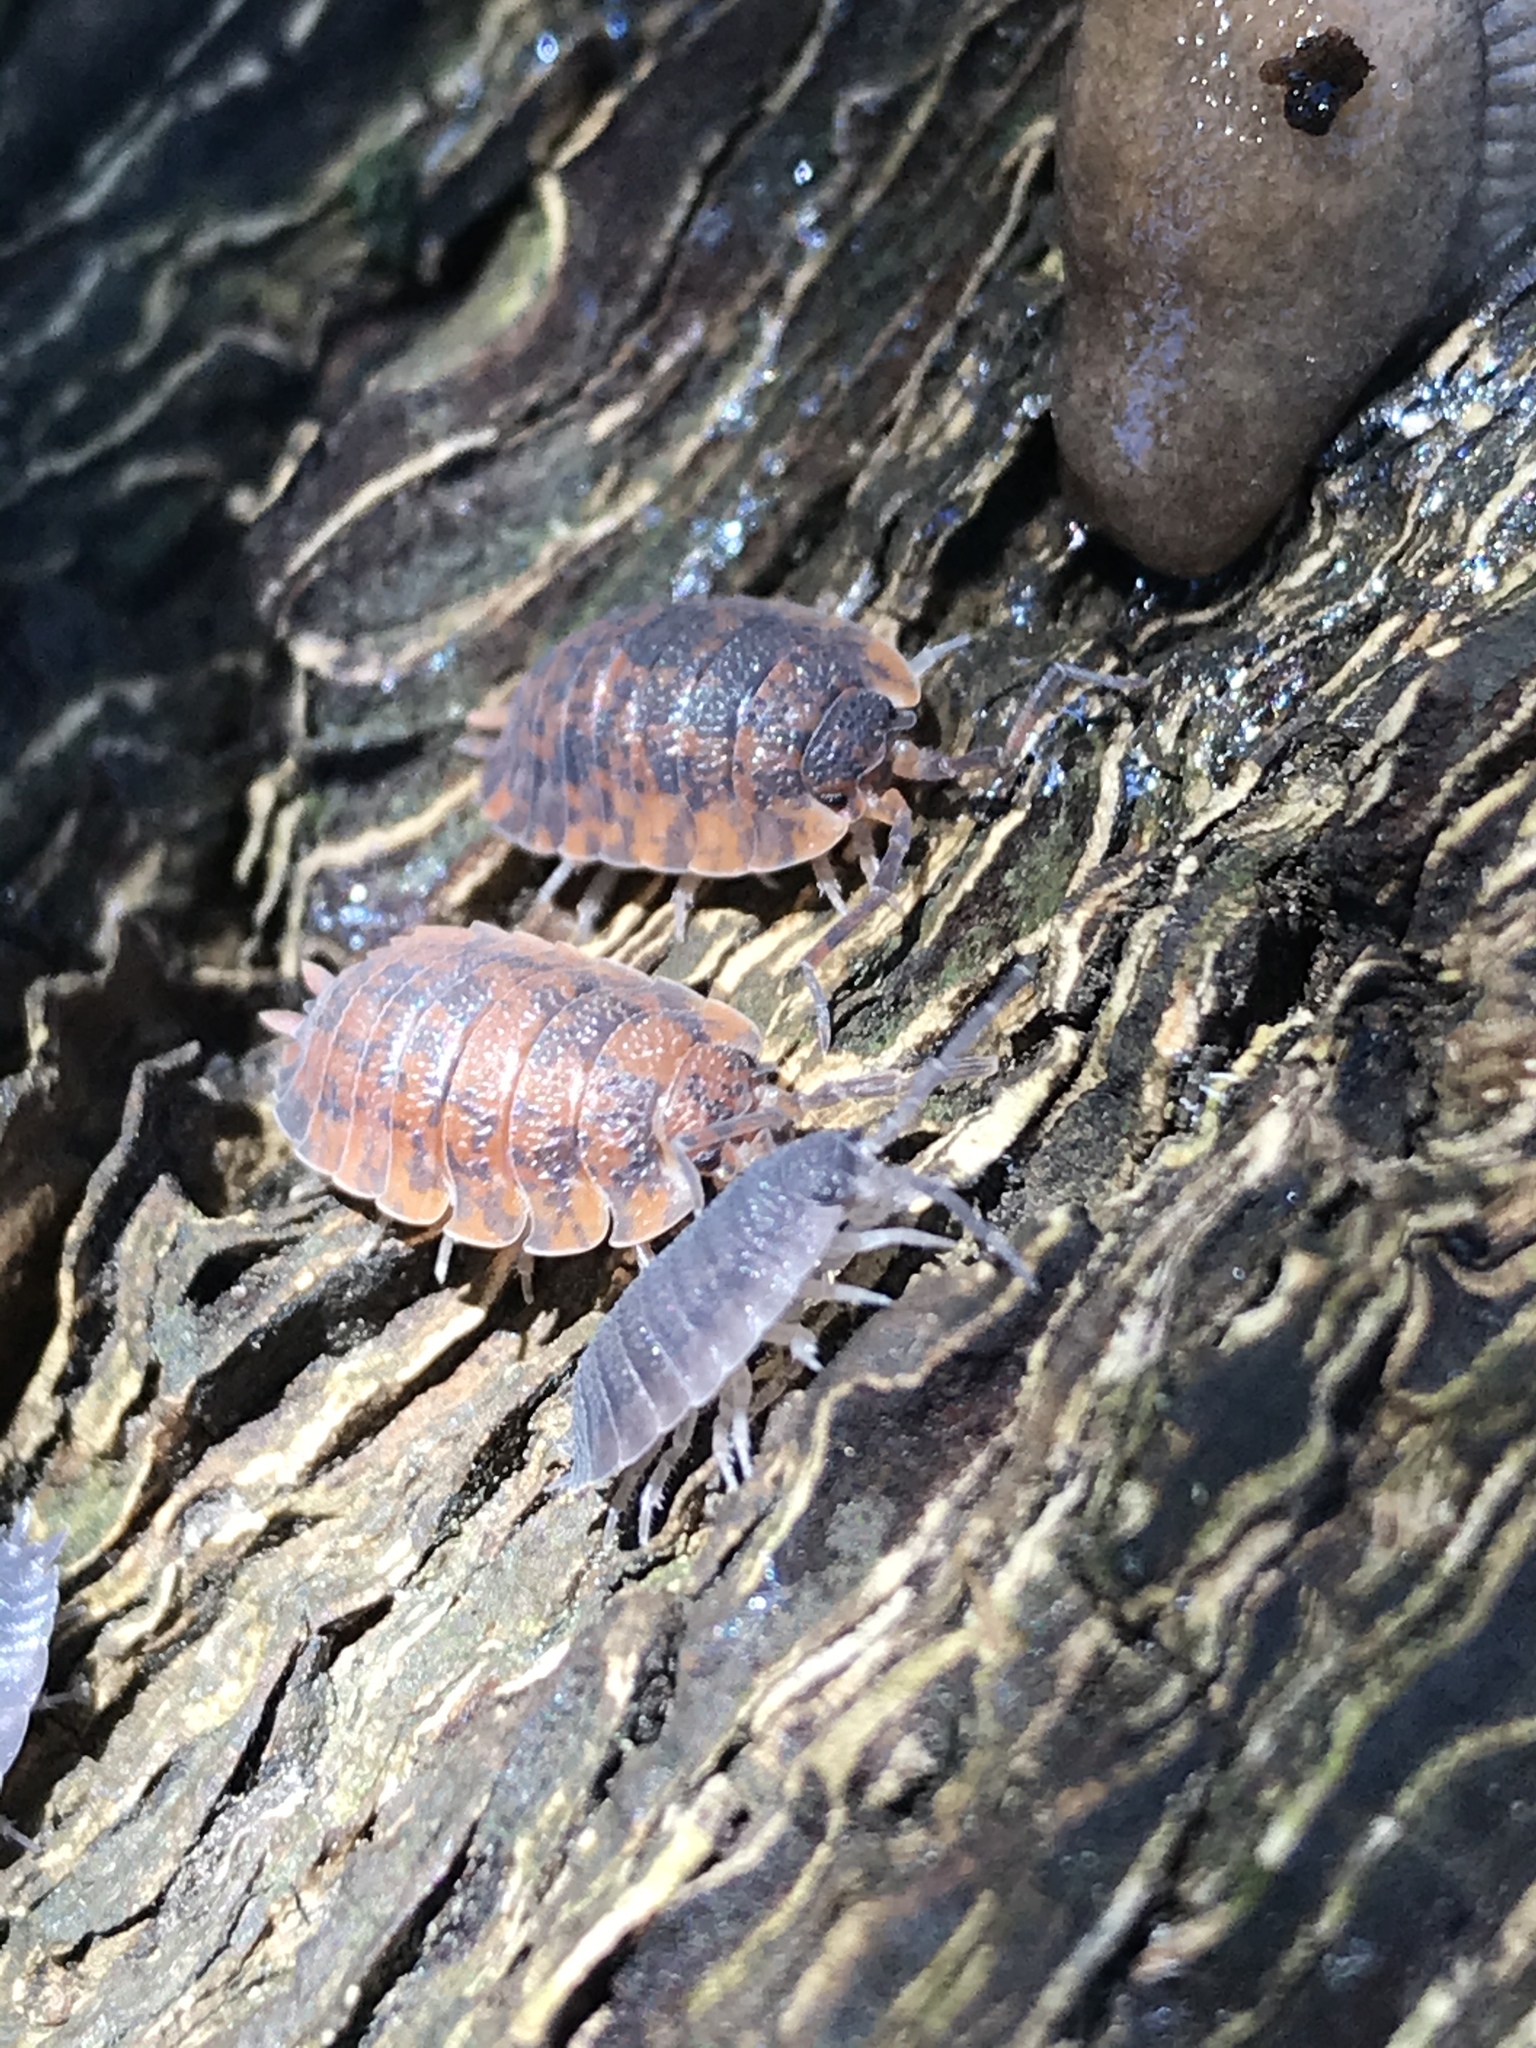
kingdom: Animalia
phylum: Arthropoda
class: Malacostraca
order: Isopoda
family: Porcellionidae
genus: Porcellio
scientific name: Porcellio scaber
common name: Common rough woodlouse
